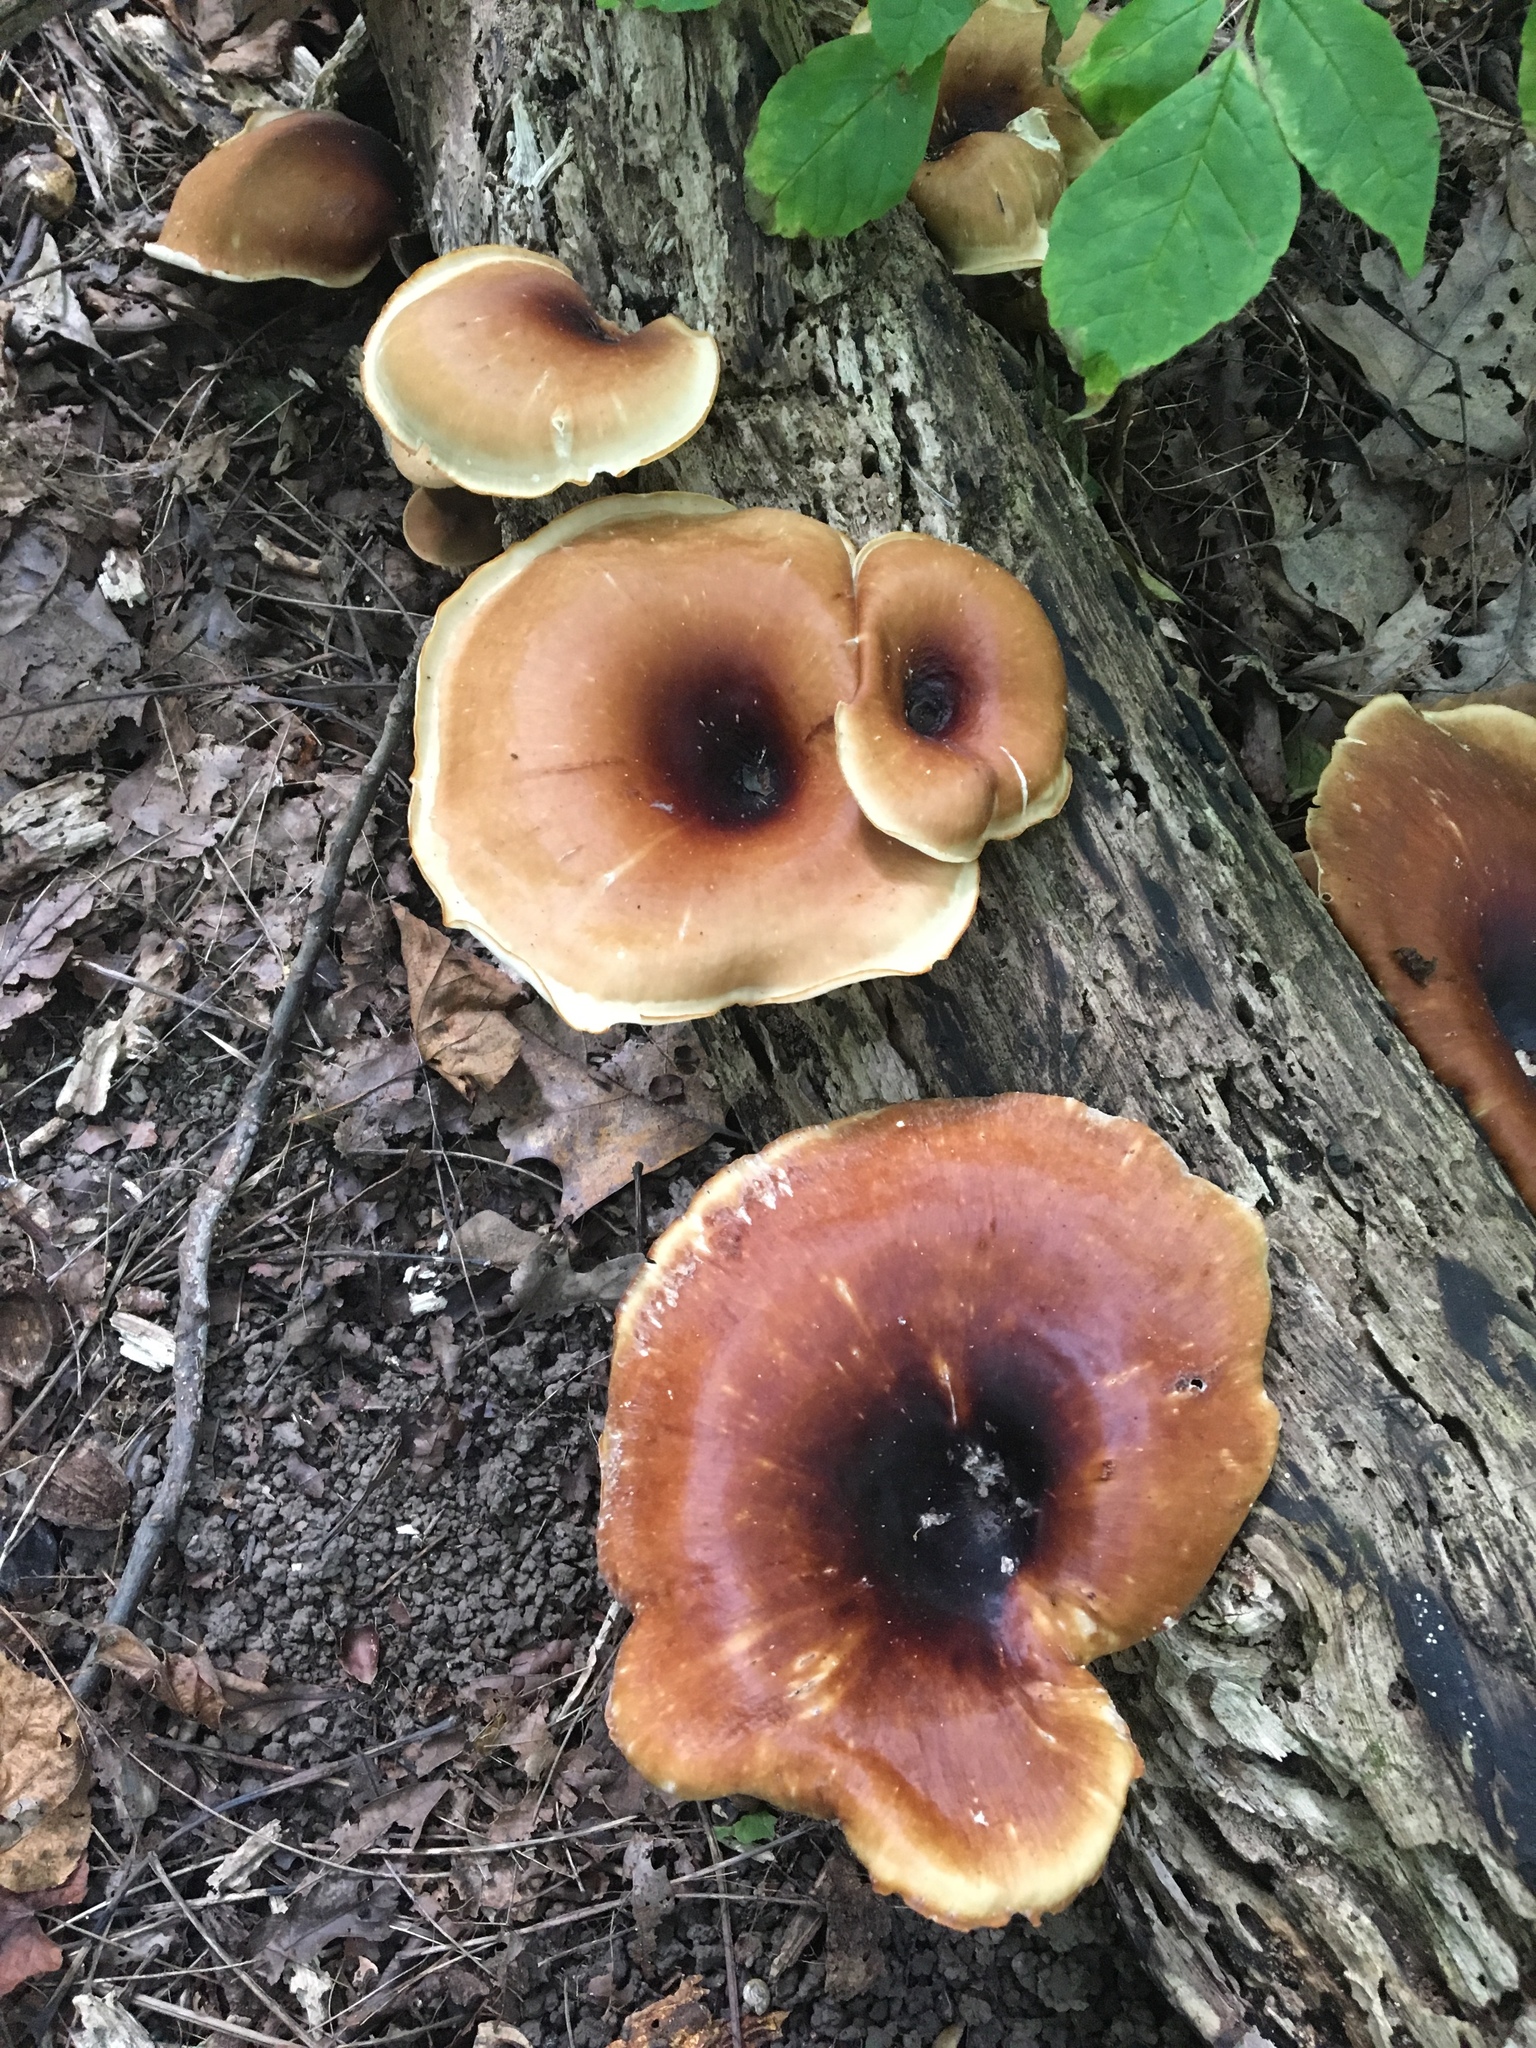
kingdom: Fungi
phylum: Basidiomycota
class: Agaricomycetes
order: Polyporales
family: Polyporaceae
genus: Picipes
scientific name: Picipes badius
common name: Bay polypore
